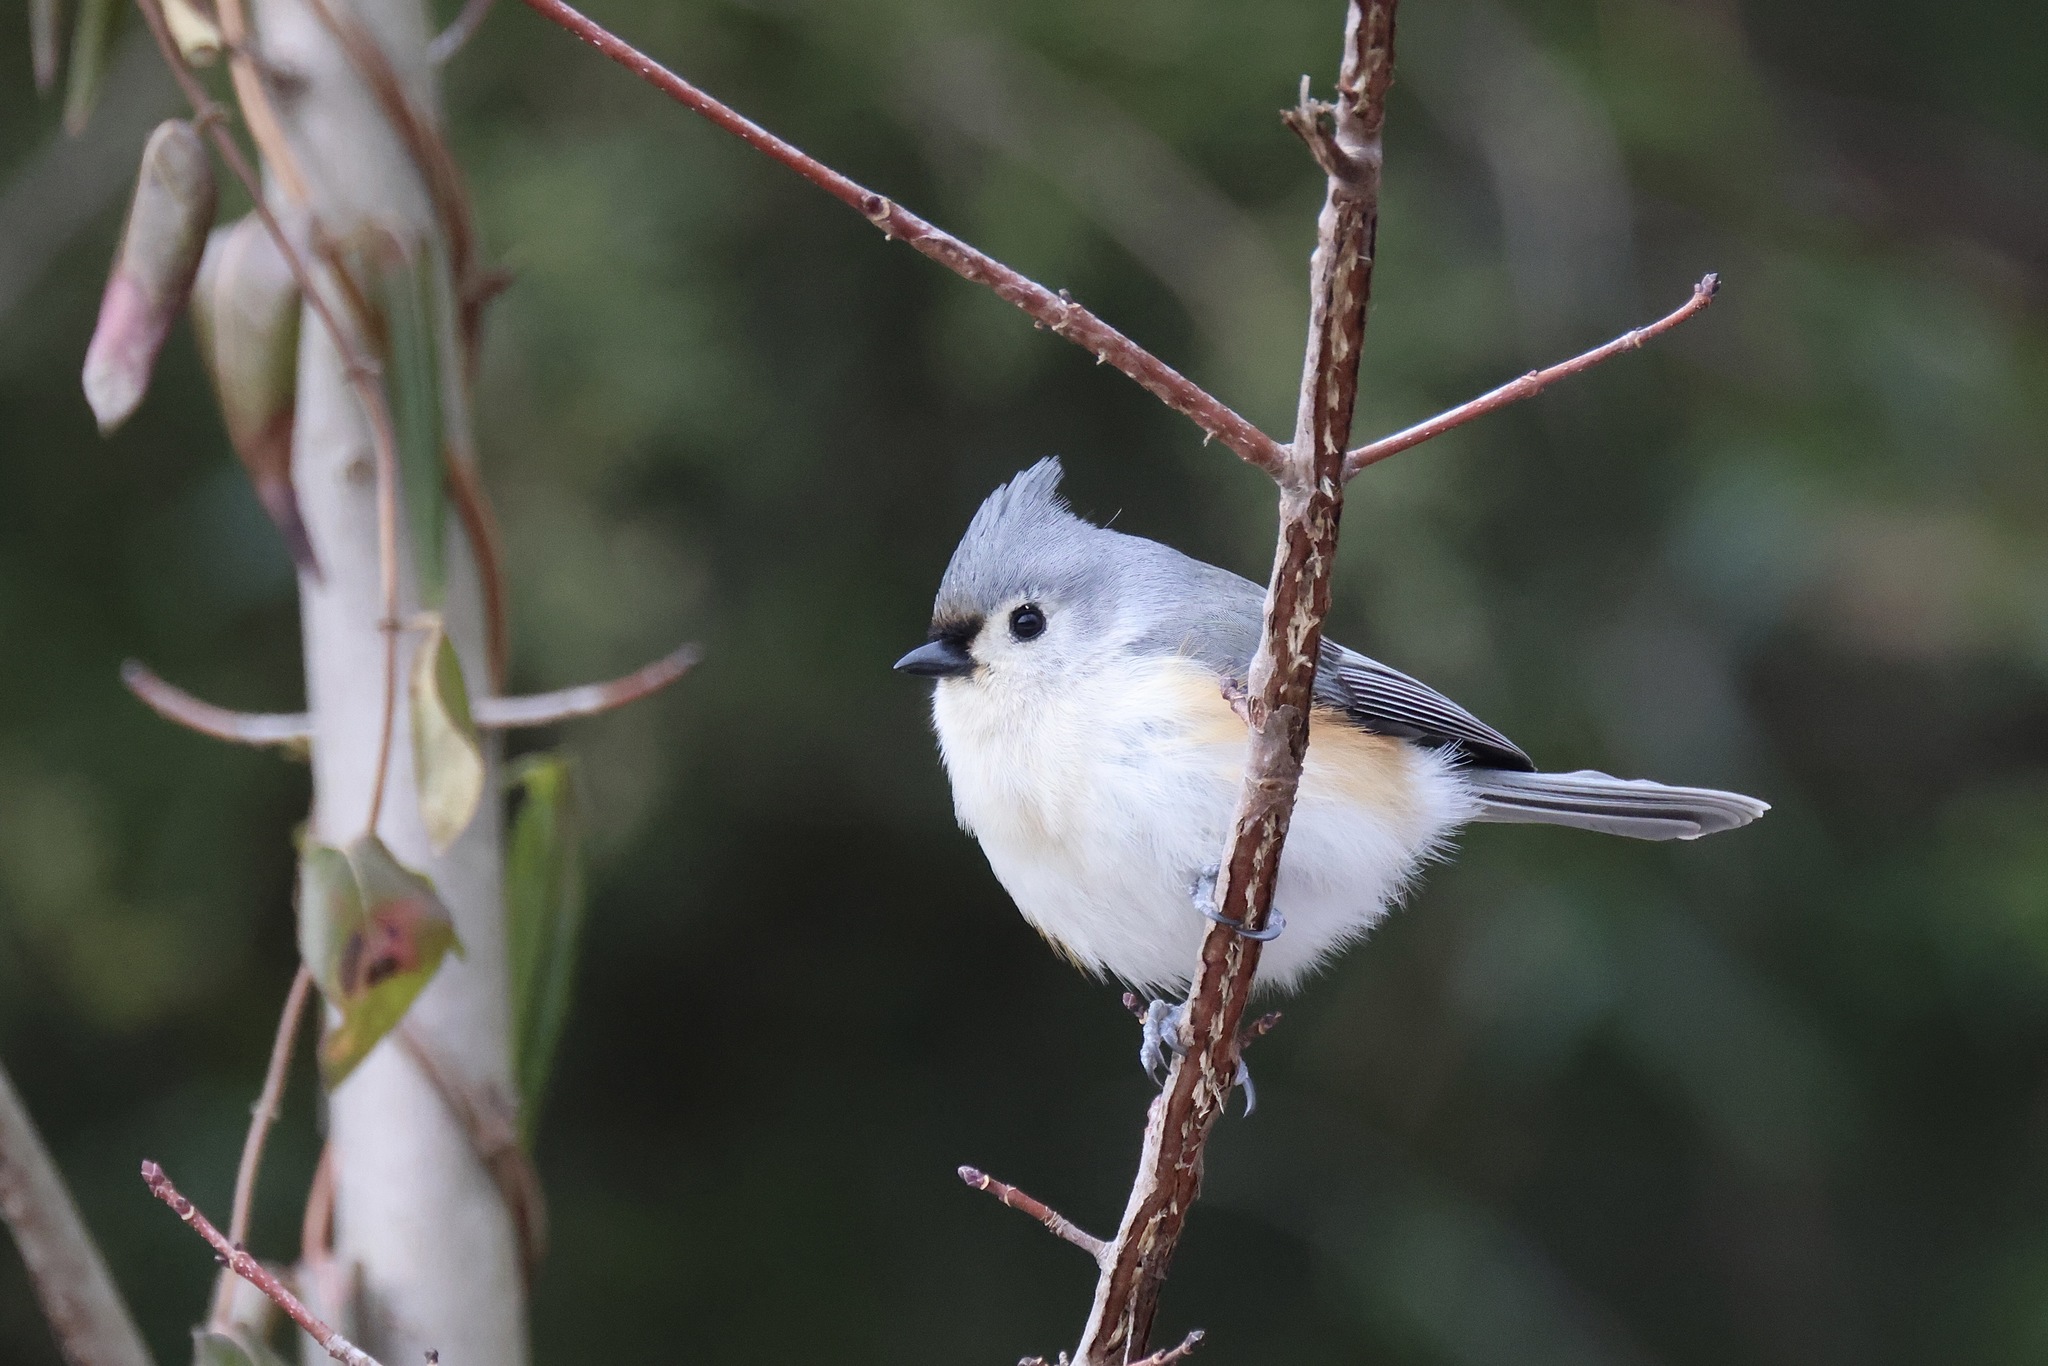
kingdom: Animalia
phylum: Chordata
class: Aves
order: Passeriformes
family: Paridae
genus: Baeolophus
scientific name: Baeolophus bicolor
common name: Tufted titmouse
